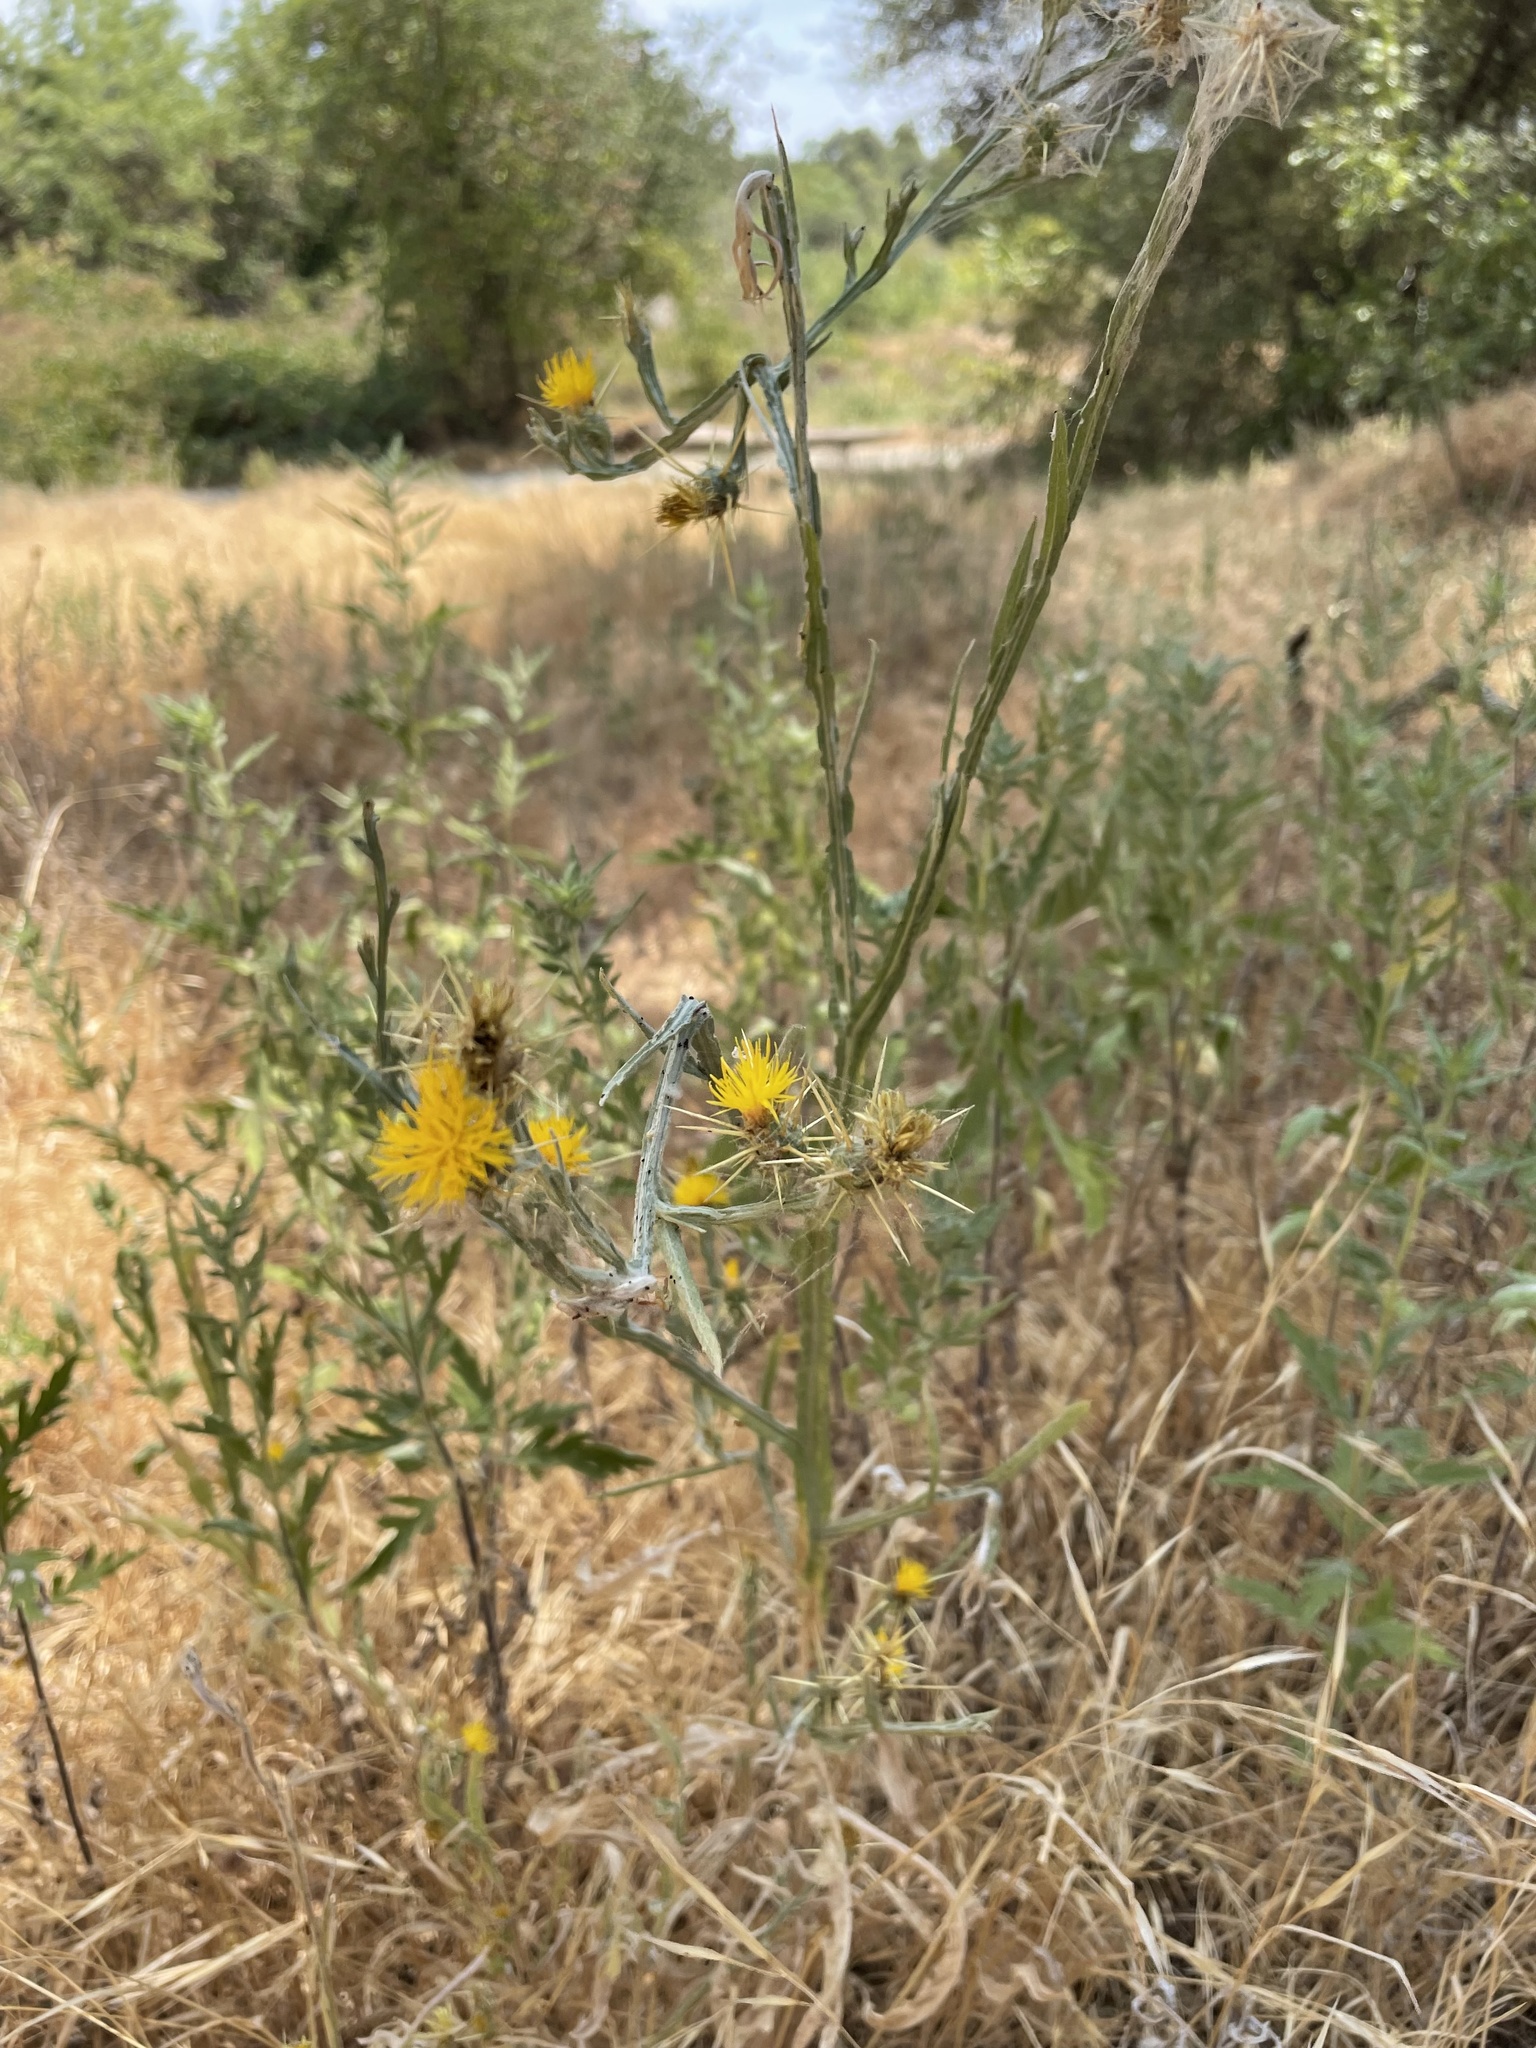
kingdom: Plantae
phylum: Tracheophyta
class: Magnoliopsida
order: Asterales
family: Asteraceae
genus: Centaurea
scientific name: Centaurea solstitialis
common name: Yellow star-thistle
